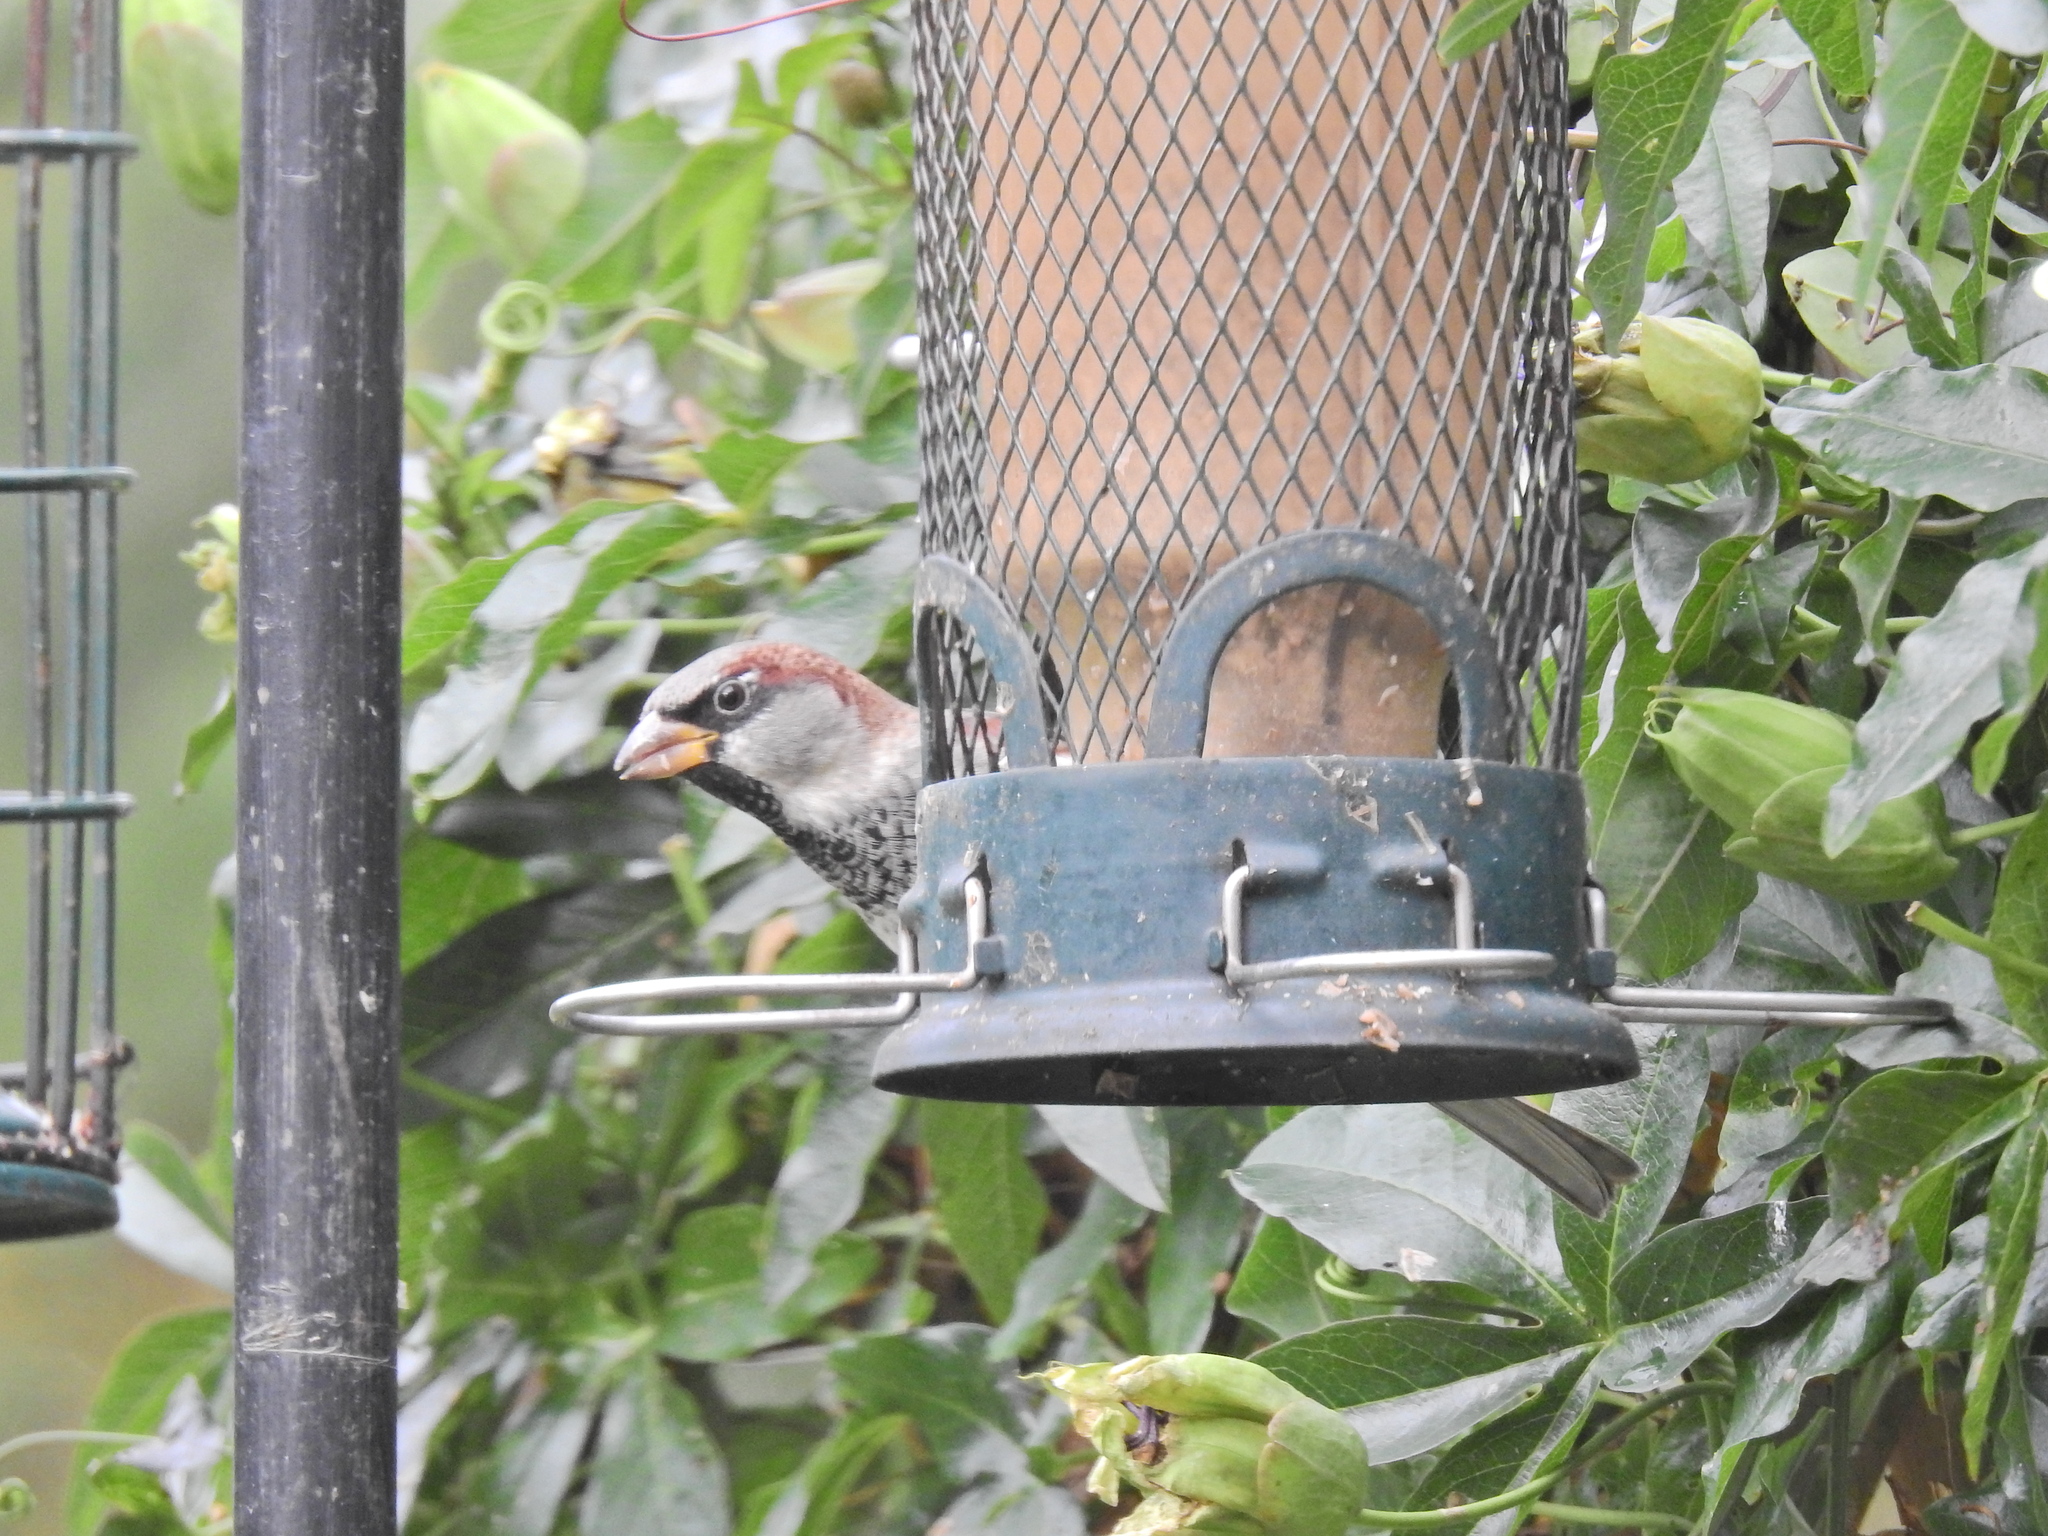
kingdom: Animalia
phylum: Chordata
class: Aves
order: Passeriformes
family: Passeridae
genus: Passer
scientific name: Passer domesticus
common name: House sparrow
